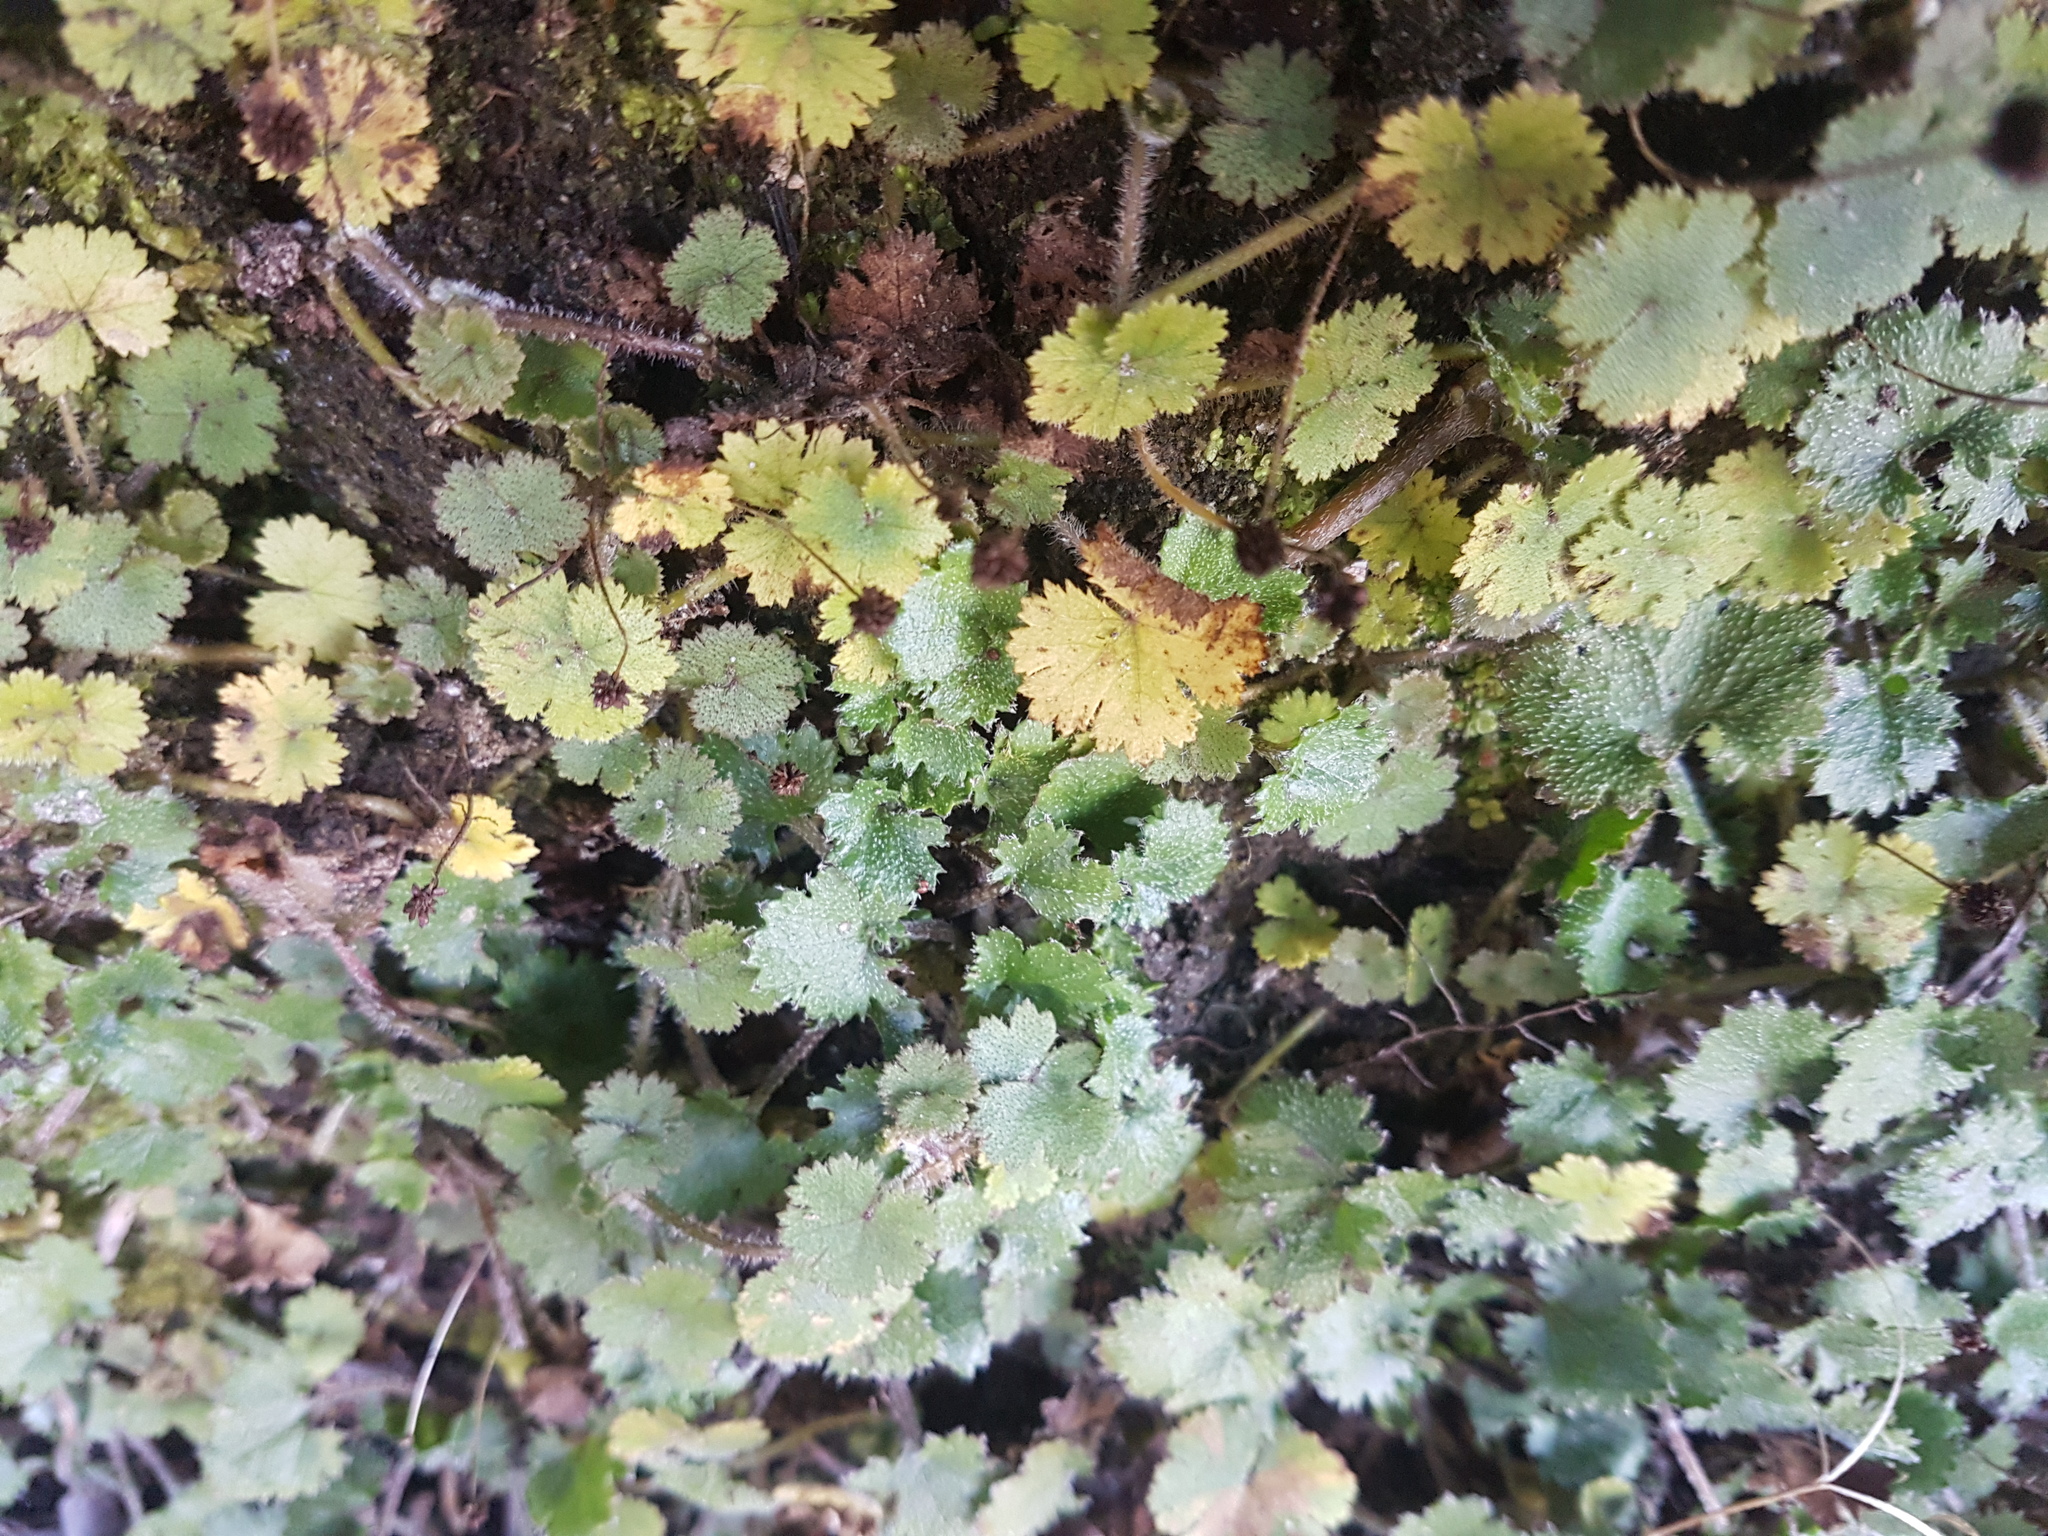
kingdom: Plantae
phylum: Tracheophyta
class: Magnoliopsida
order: Apiales
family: Araliaceae
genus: Hydrocotyle
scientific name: Hydrocotyle moschata
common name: Hairy pennywort
